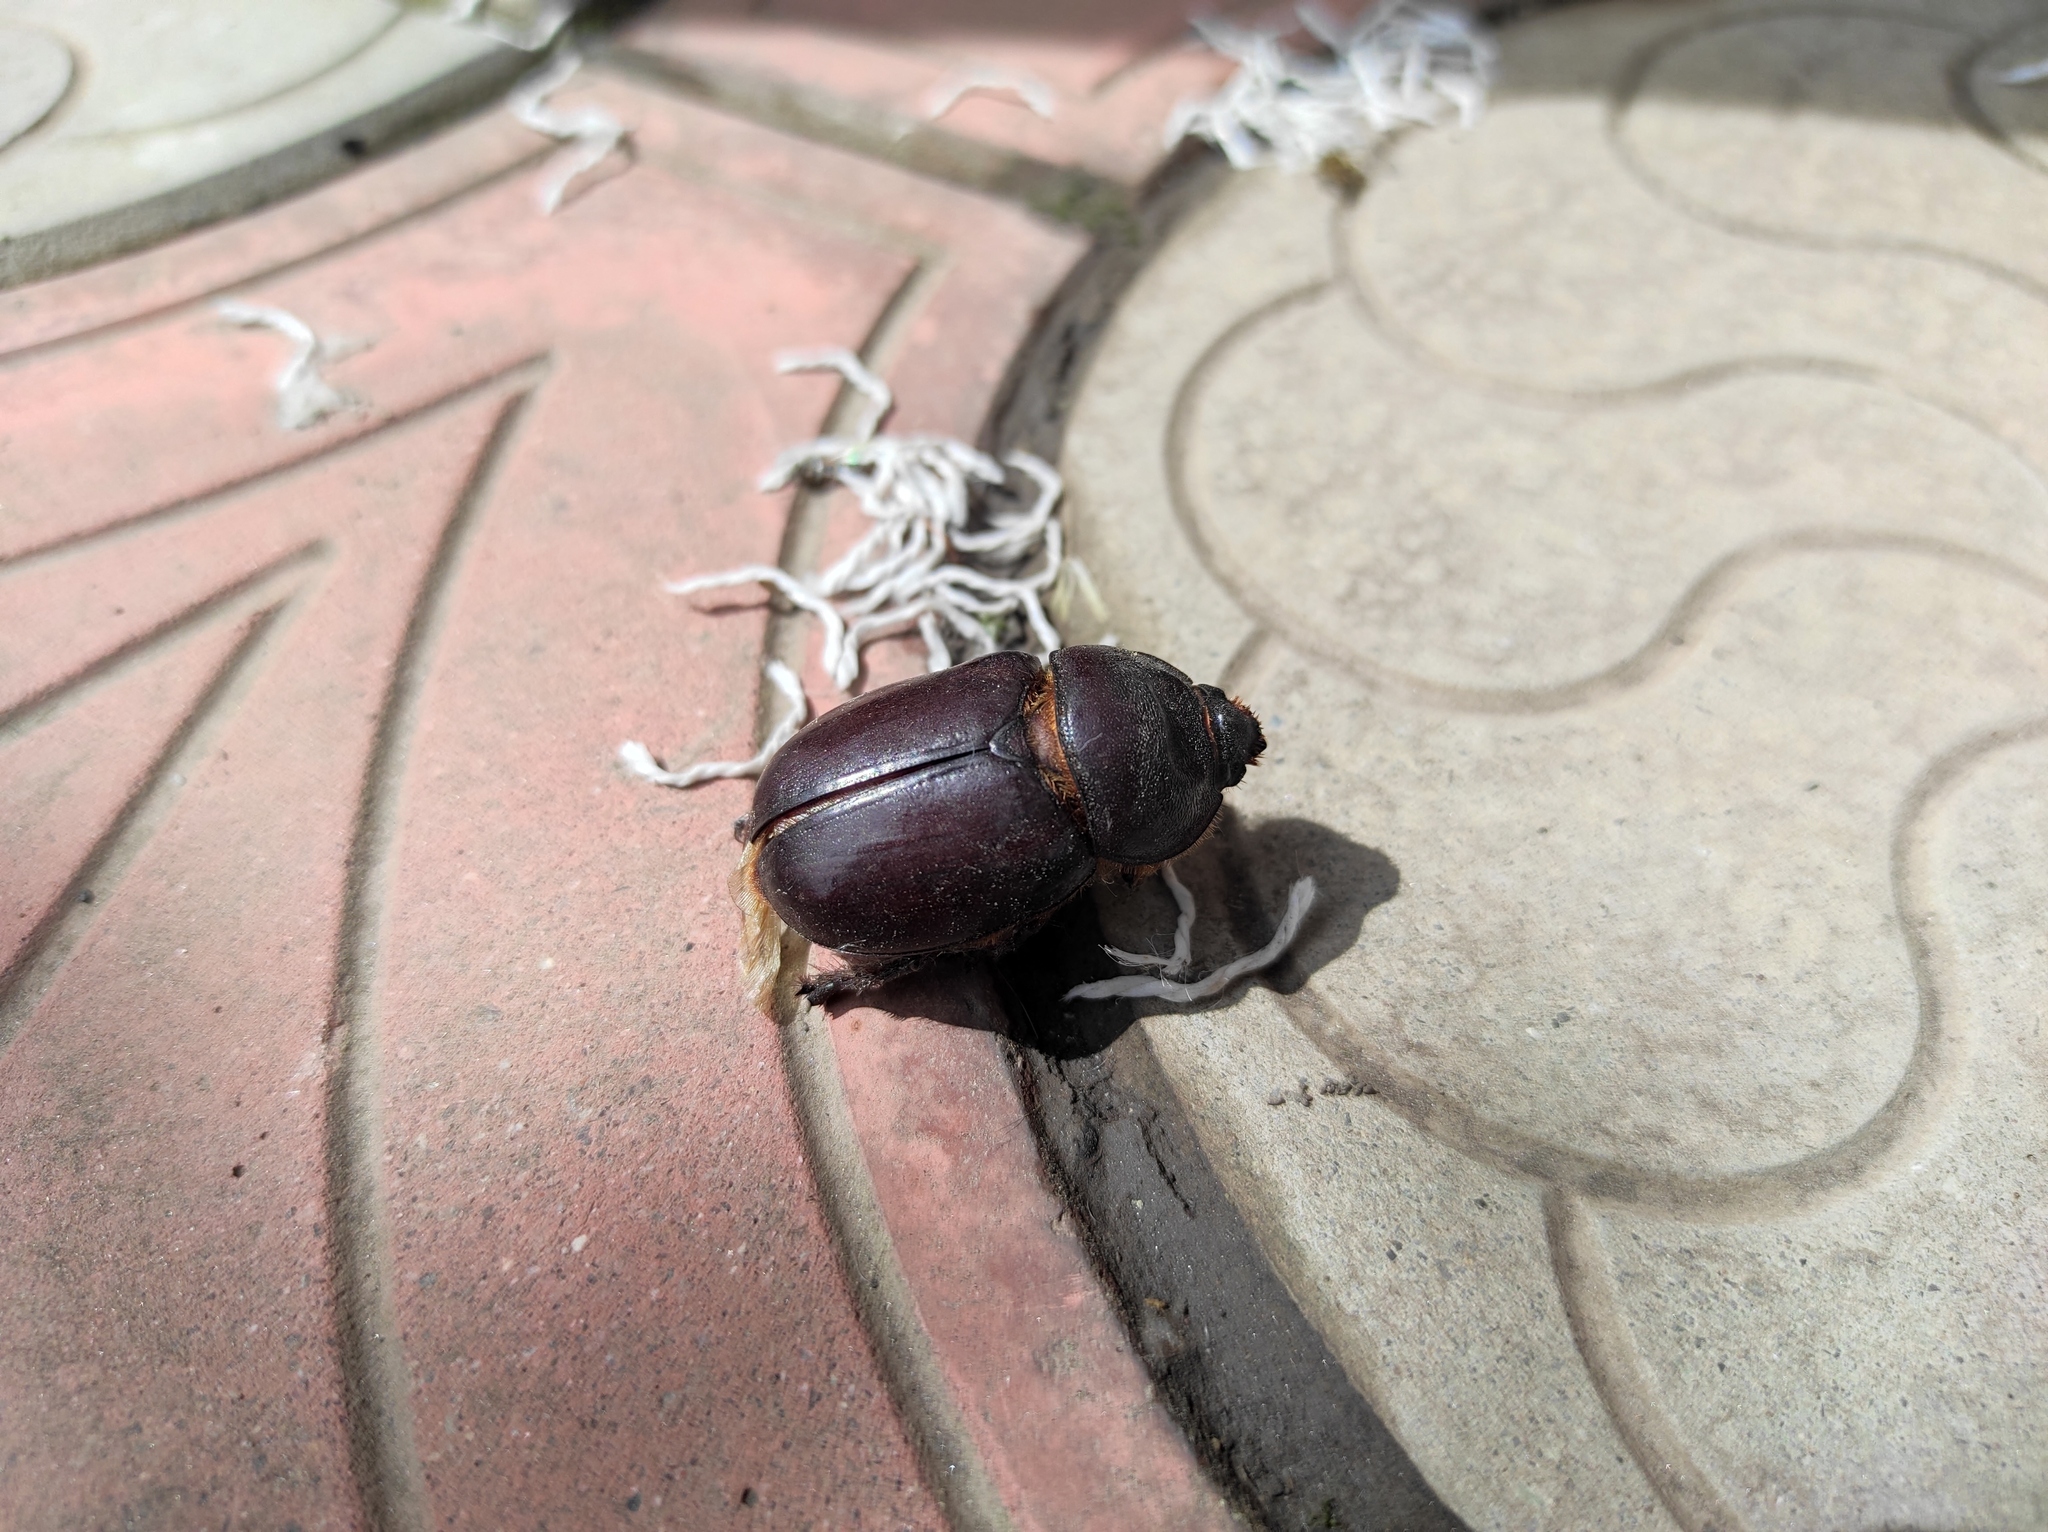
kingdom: Animalia
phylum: Arthropoda
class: Insecta
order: Coleoptera
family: Scarabaeidae
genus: Oryctes
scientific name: Oryctes nasicornis
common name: European rhinoceros beetle
